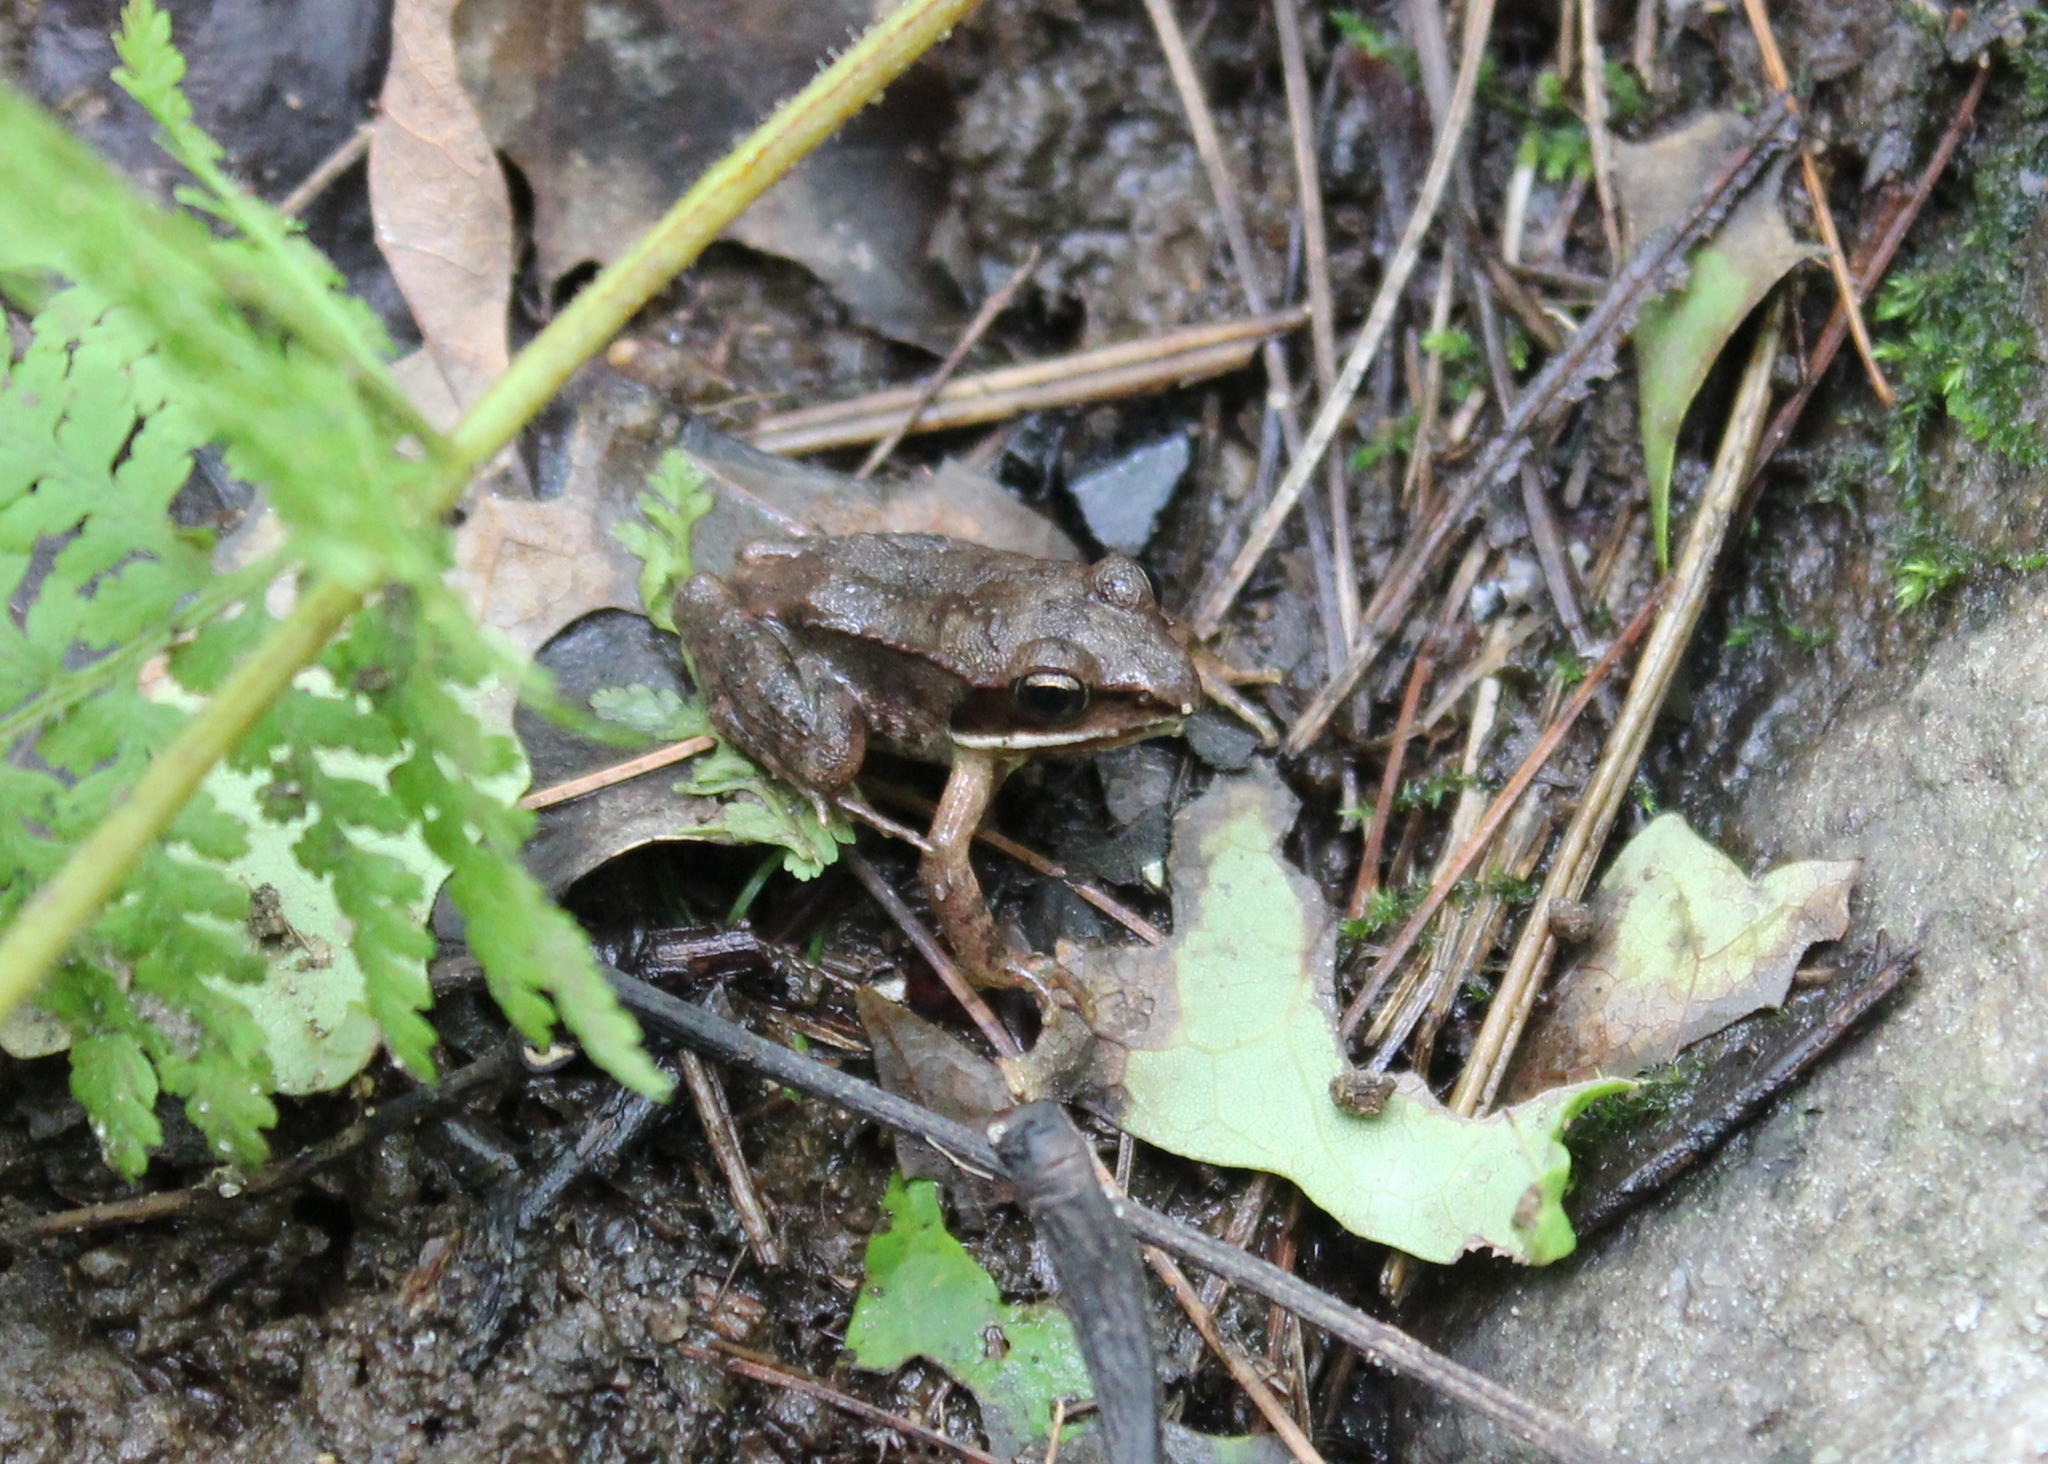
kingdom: Animalia
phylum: Chordata
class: Amphibia
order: Anura
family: Ranidae
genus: Lithobates
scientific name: Lithobates sylvaticus
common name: Wood frog
